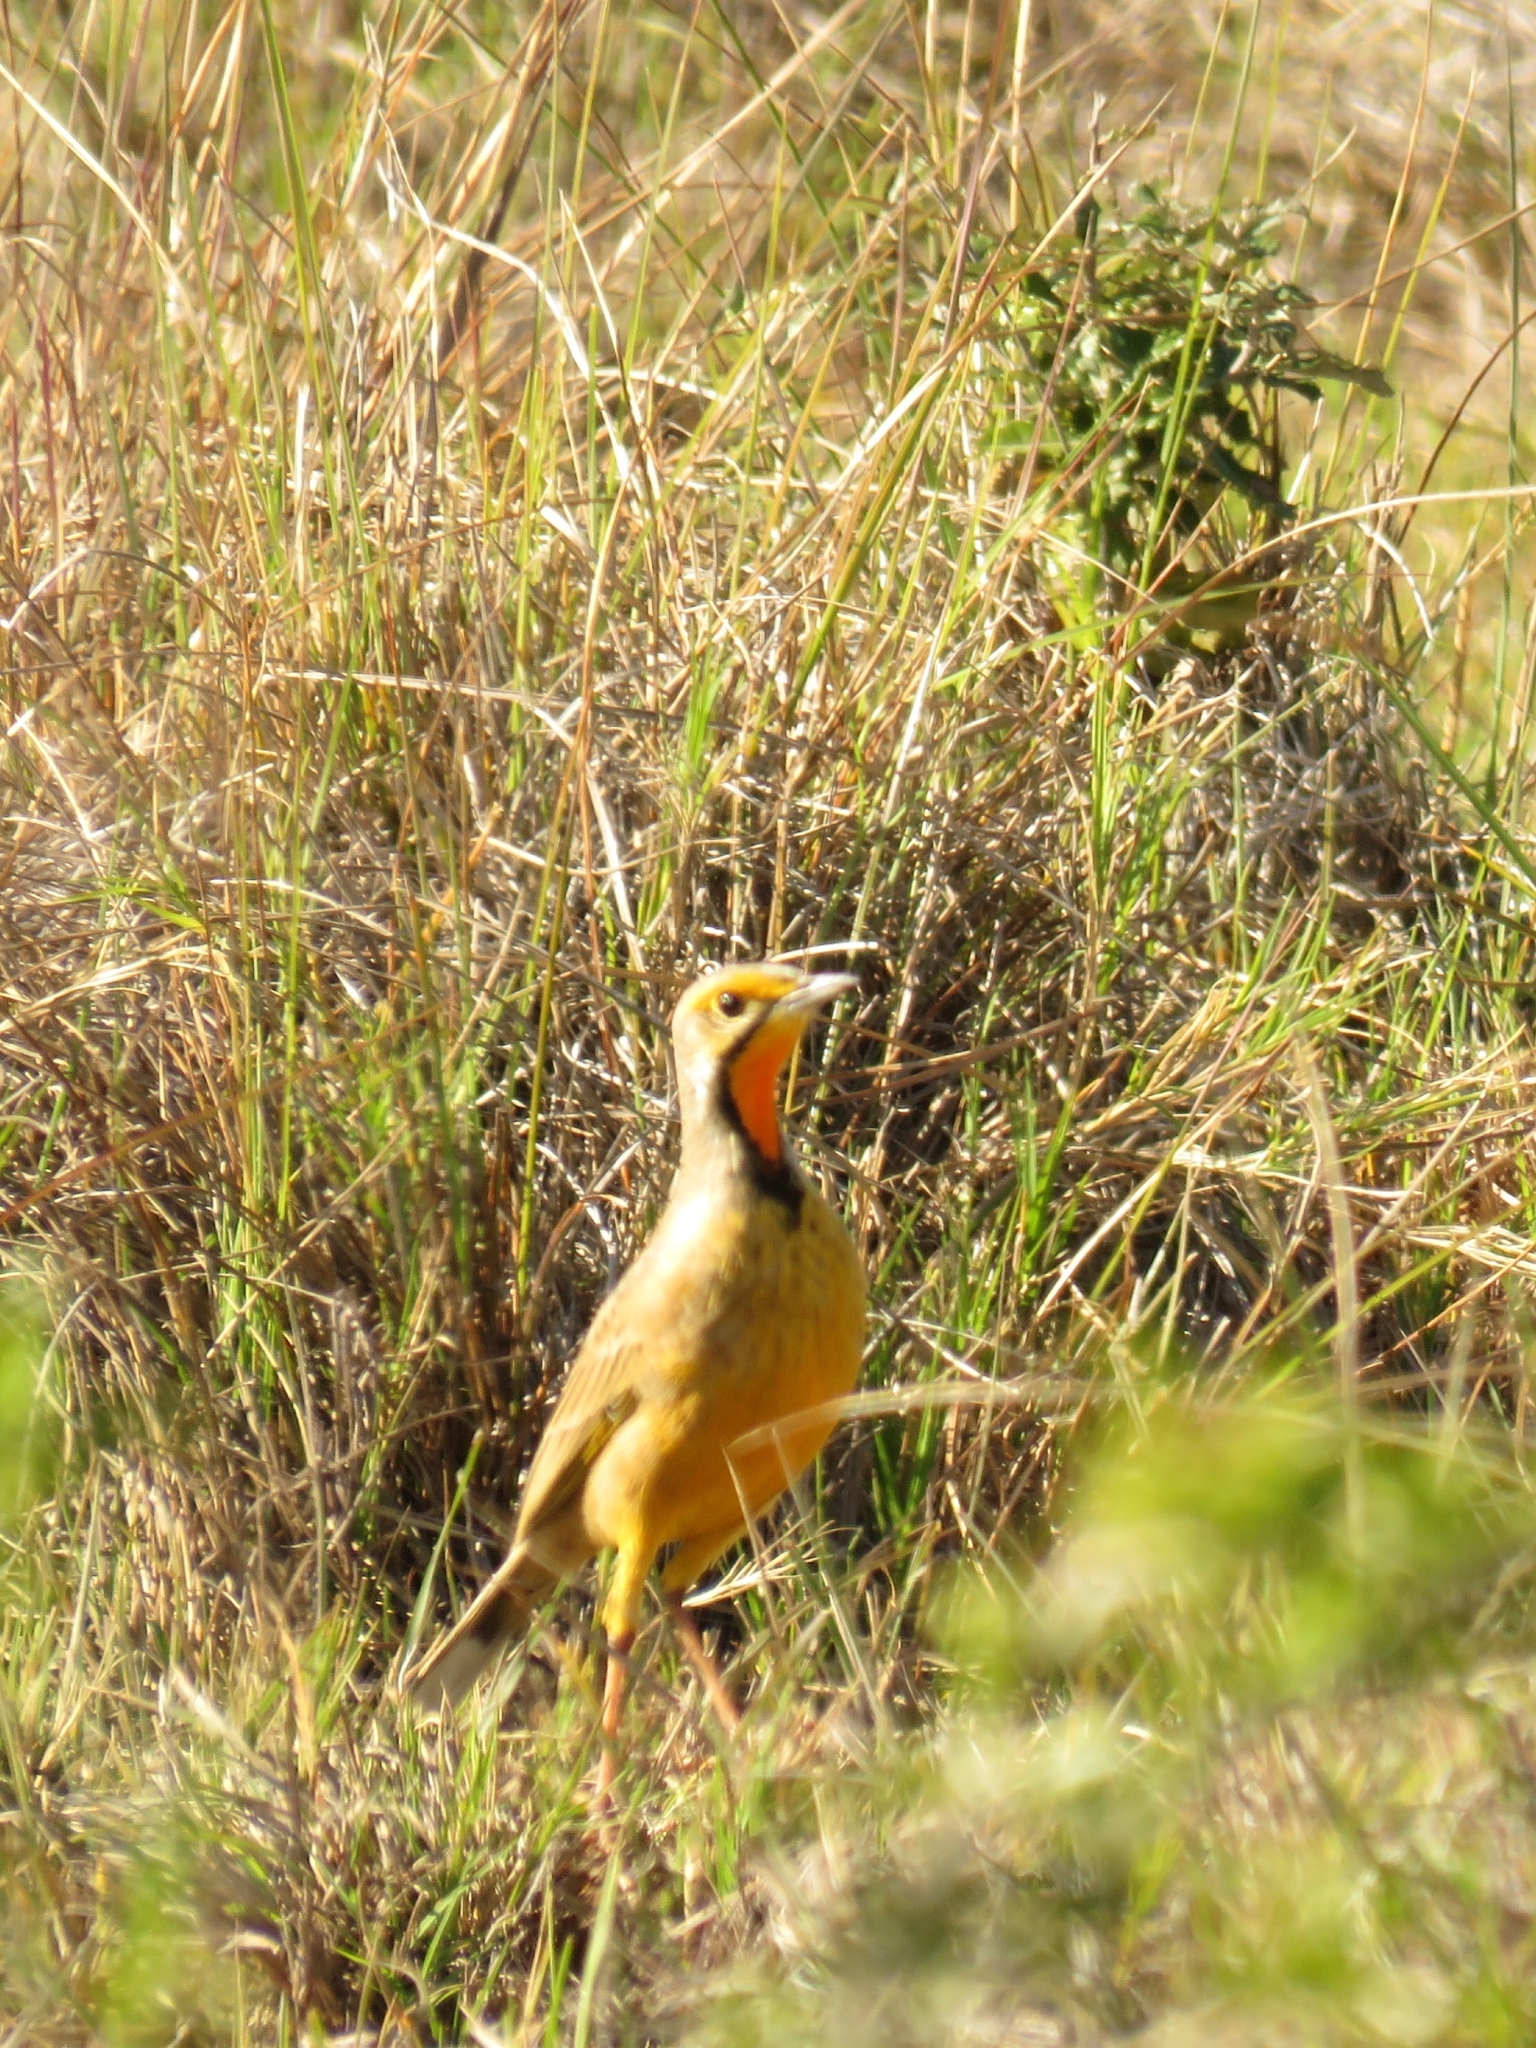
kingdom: Animalia
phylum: Chordata
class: Aves
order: Passeriformes
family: Motacillidae
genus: Macronyx
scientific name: Macronyx capensis
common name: Cape longclaw
